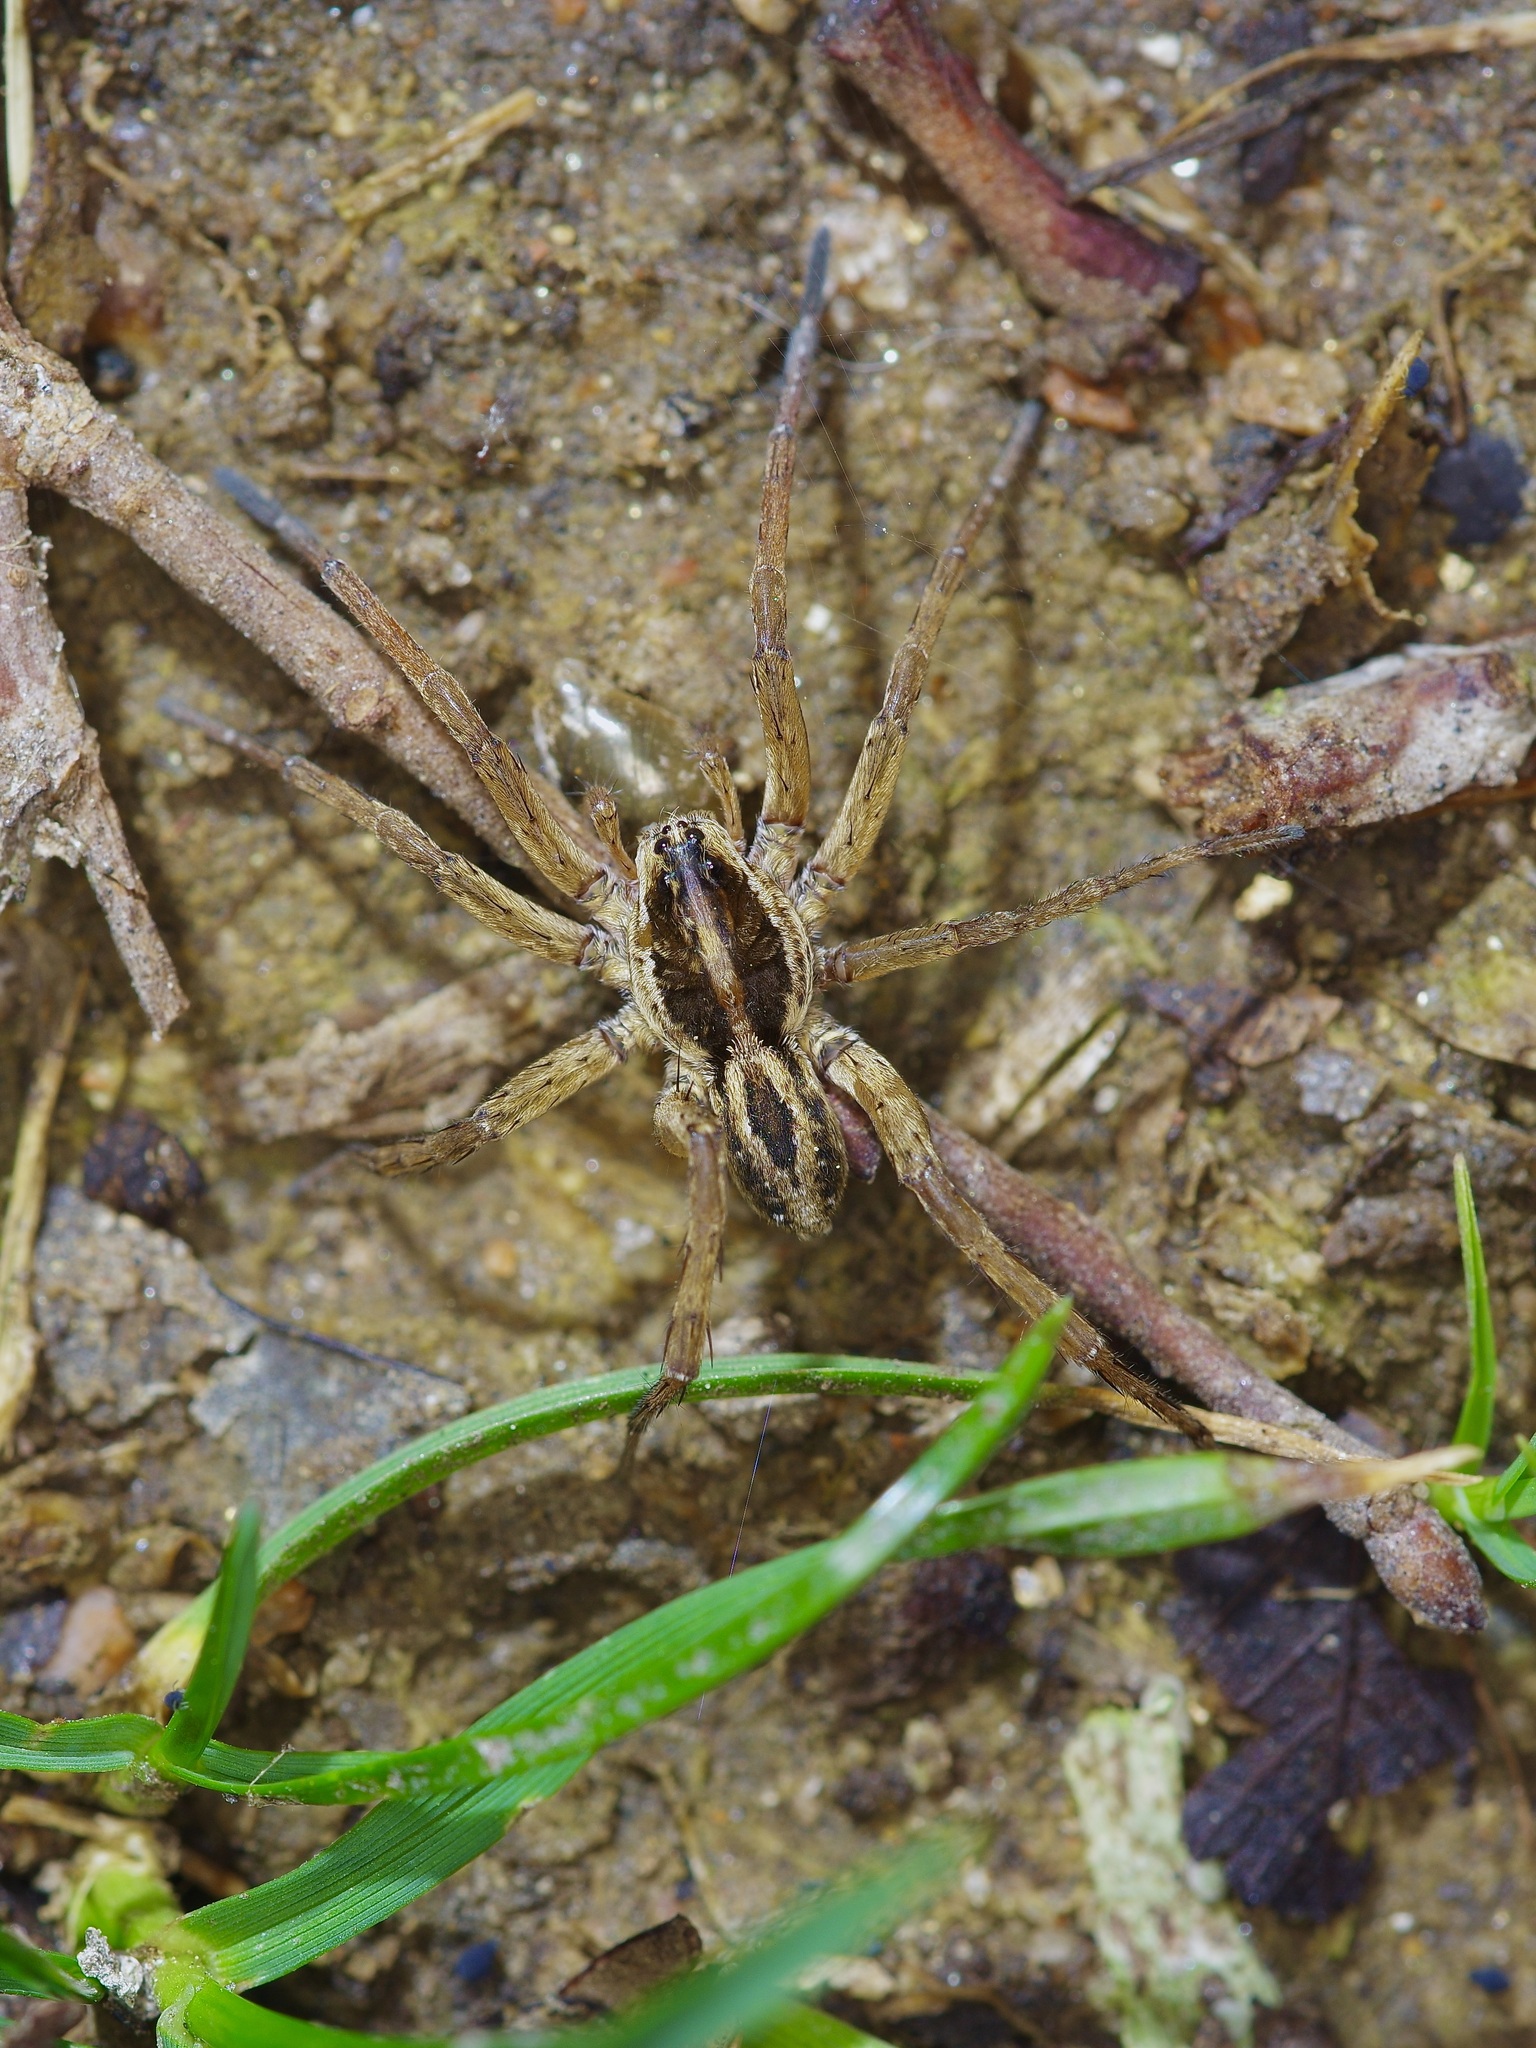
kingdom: Animalia
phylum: Arthropoda
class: Arachnida
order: Araneae
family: Lycosidae
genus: Tigrosa
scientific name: Tigrosa annexa
